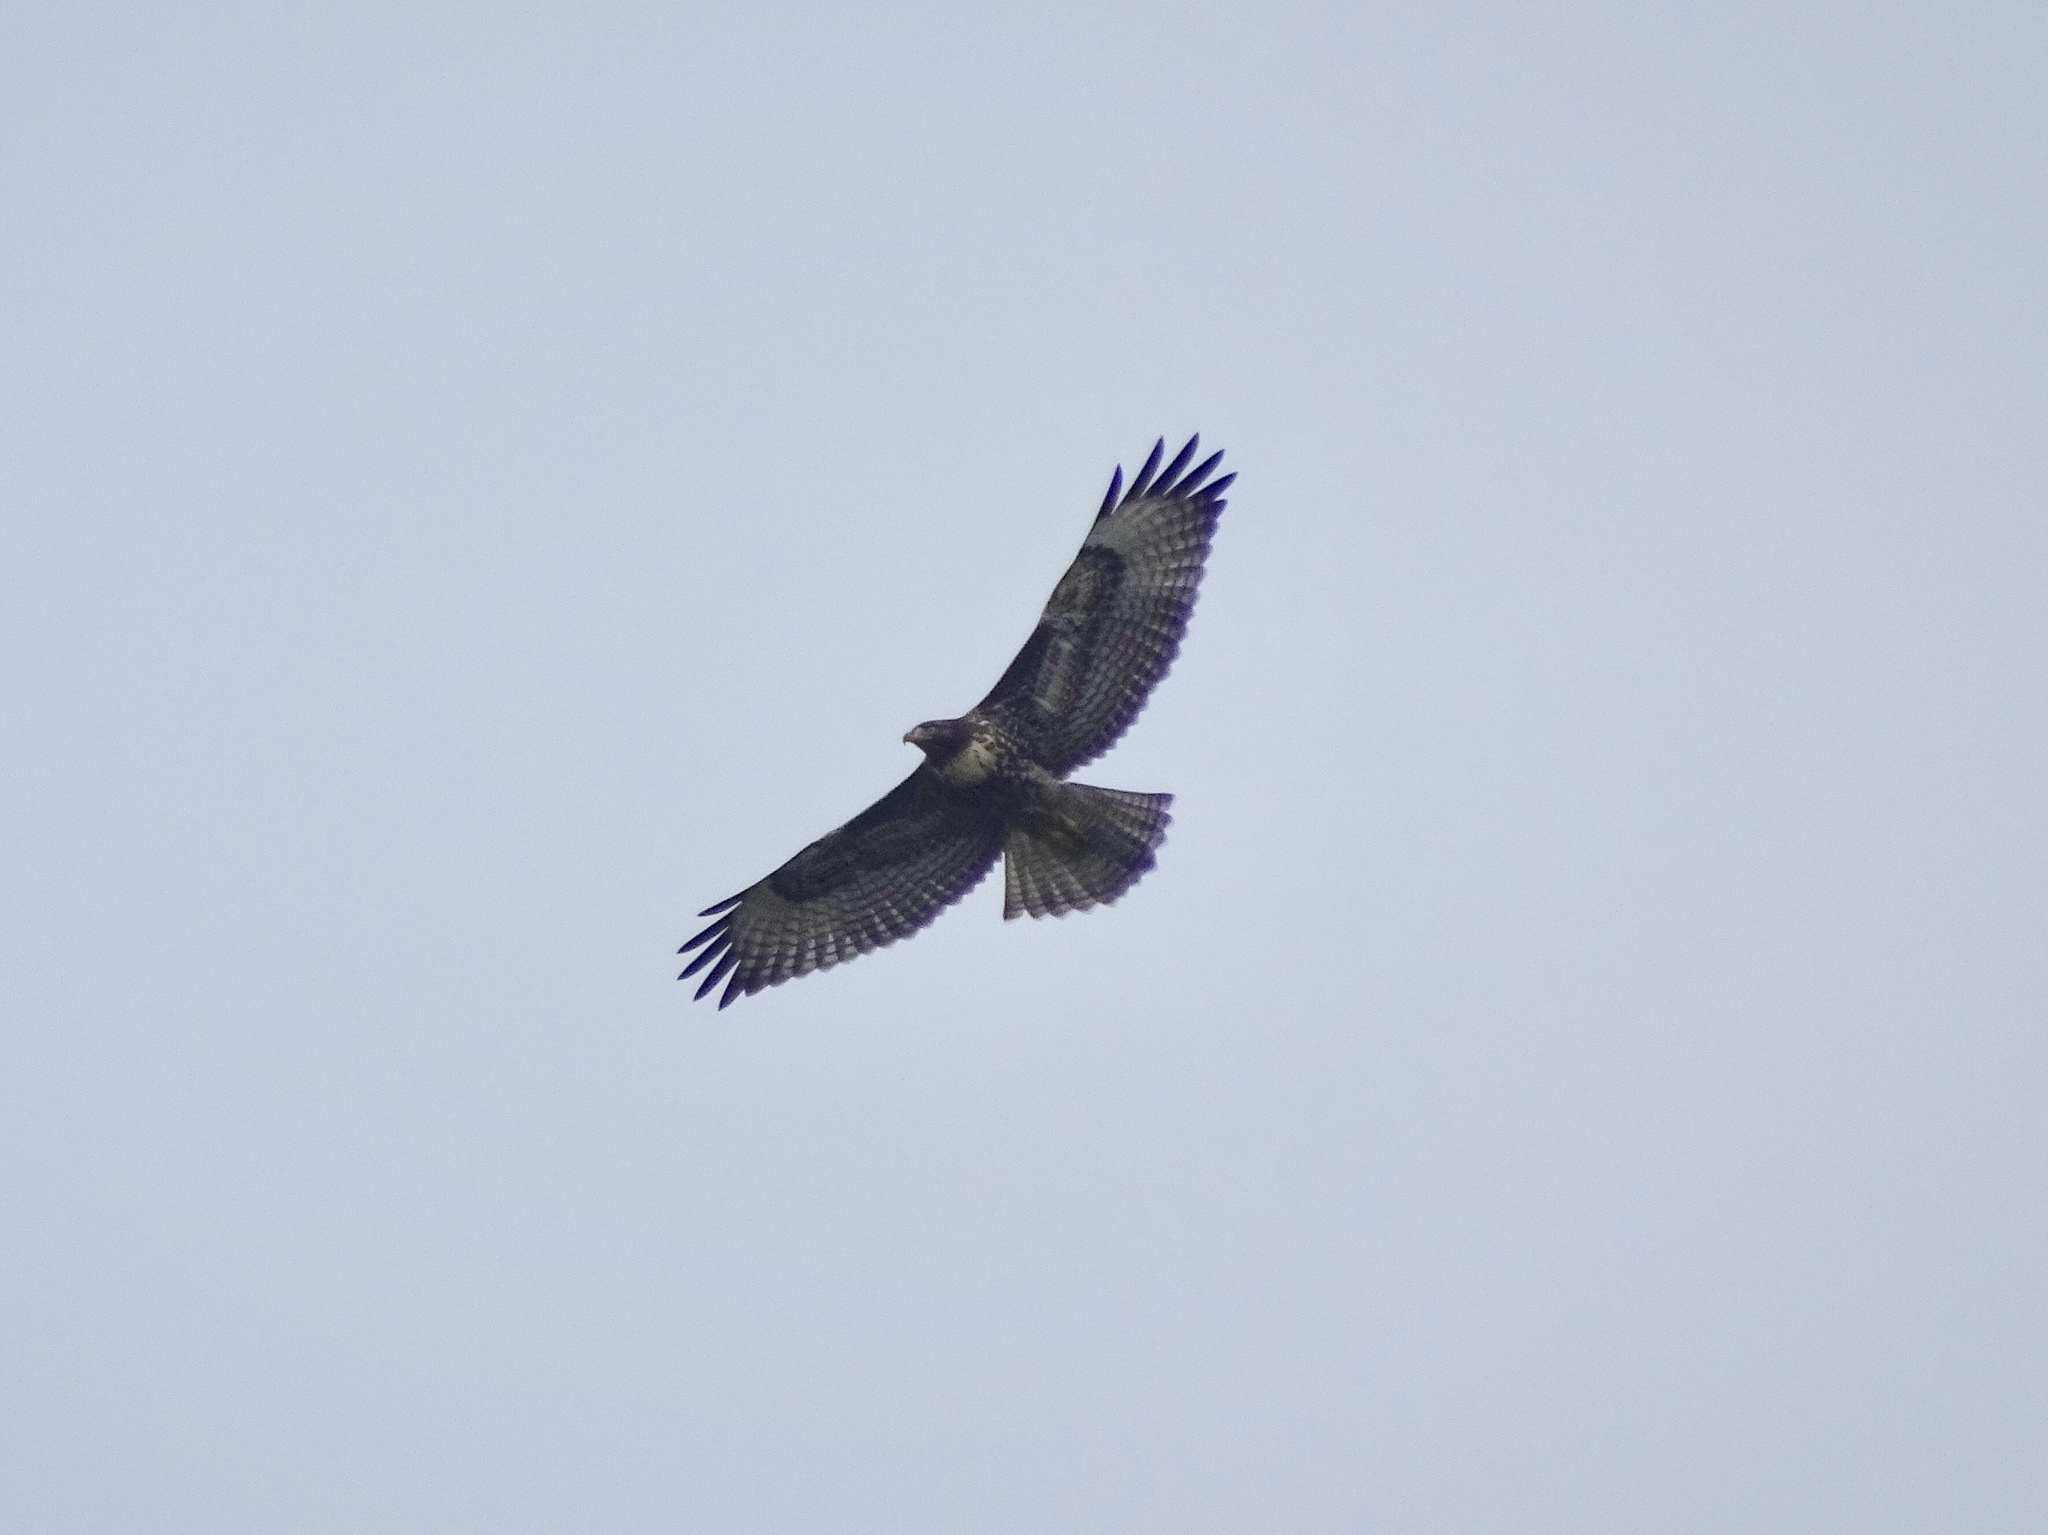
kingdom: Animalia
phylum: Chordata
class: Aves
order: Accipitriformes
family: Accipitridae
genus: Buteo
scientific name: Buteo jamaicensis
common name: Red-tailed hawk
